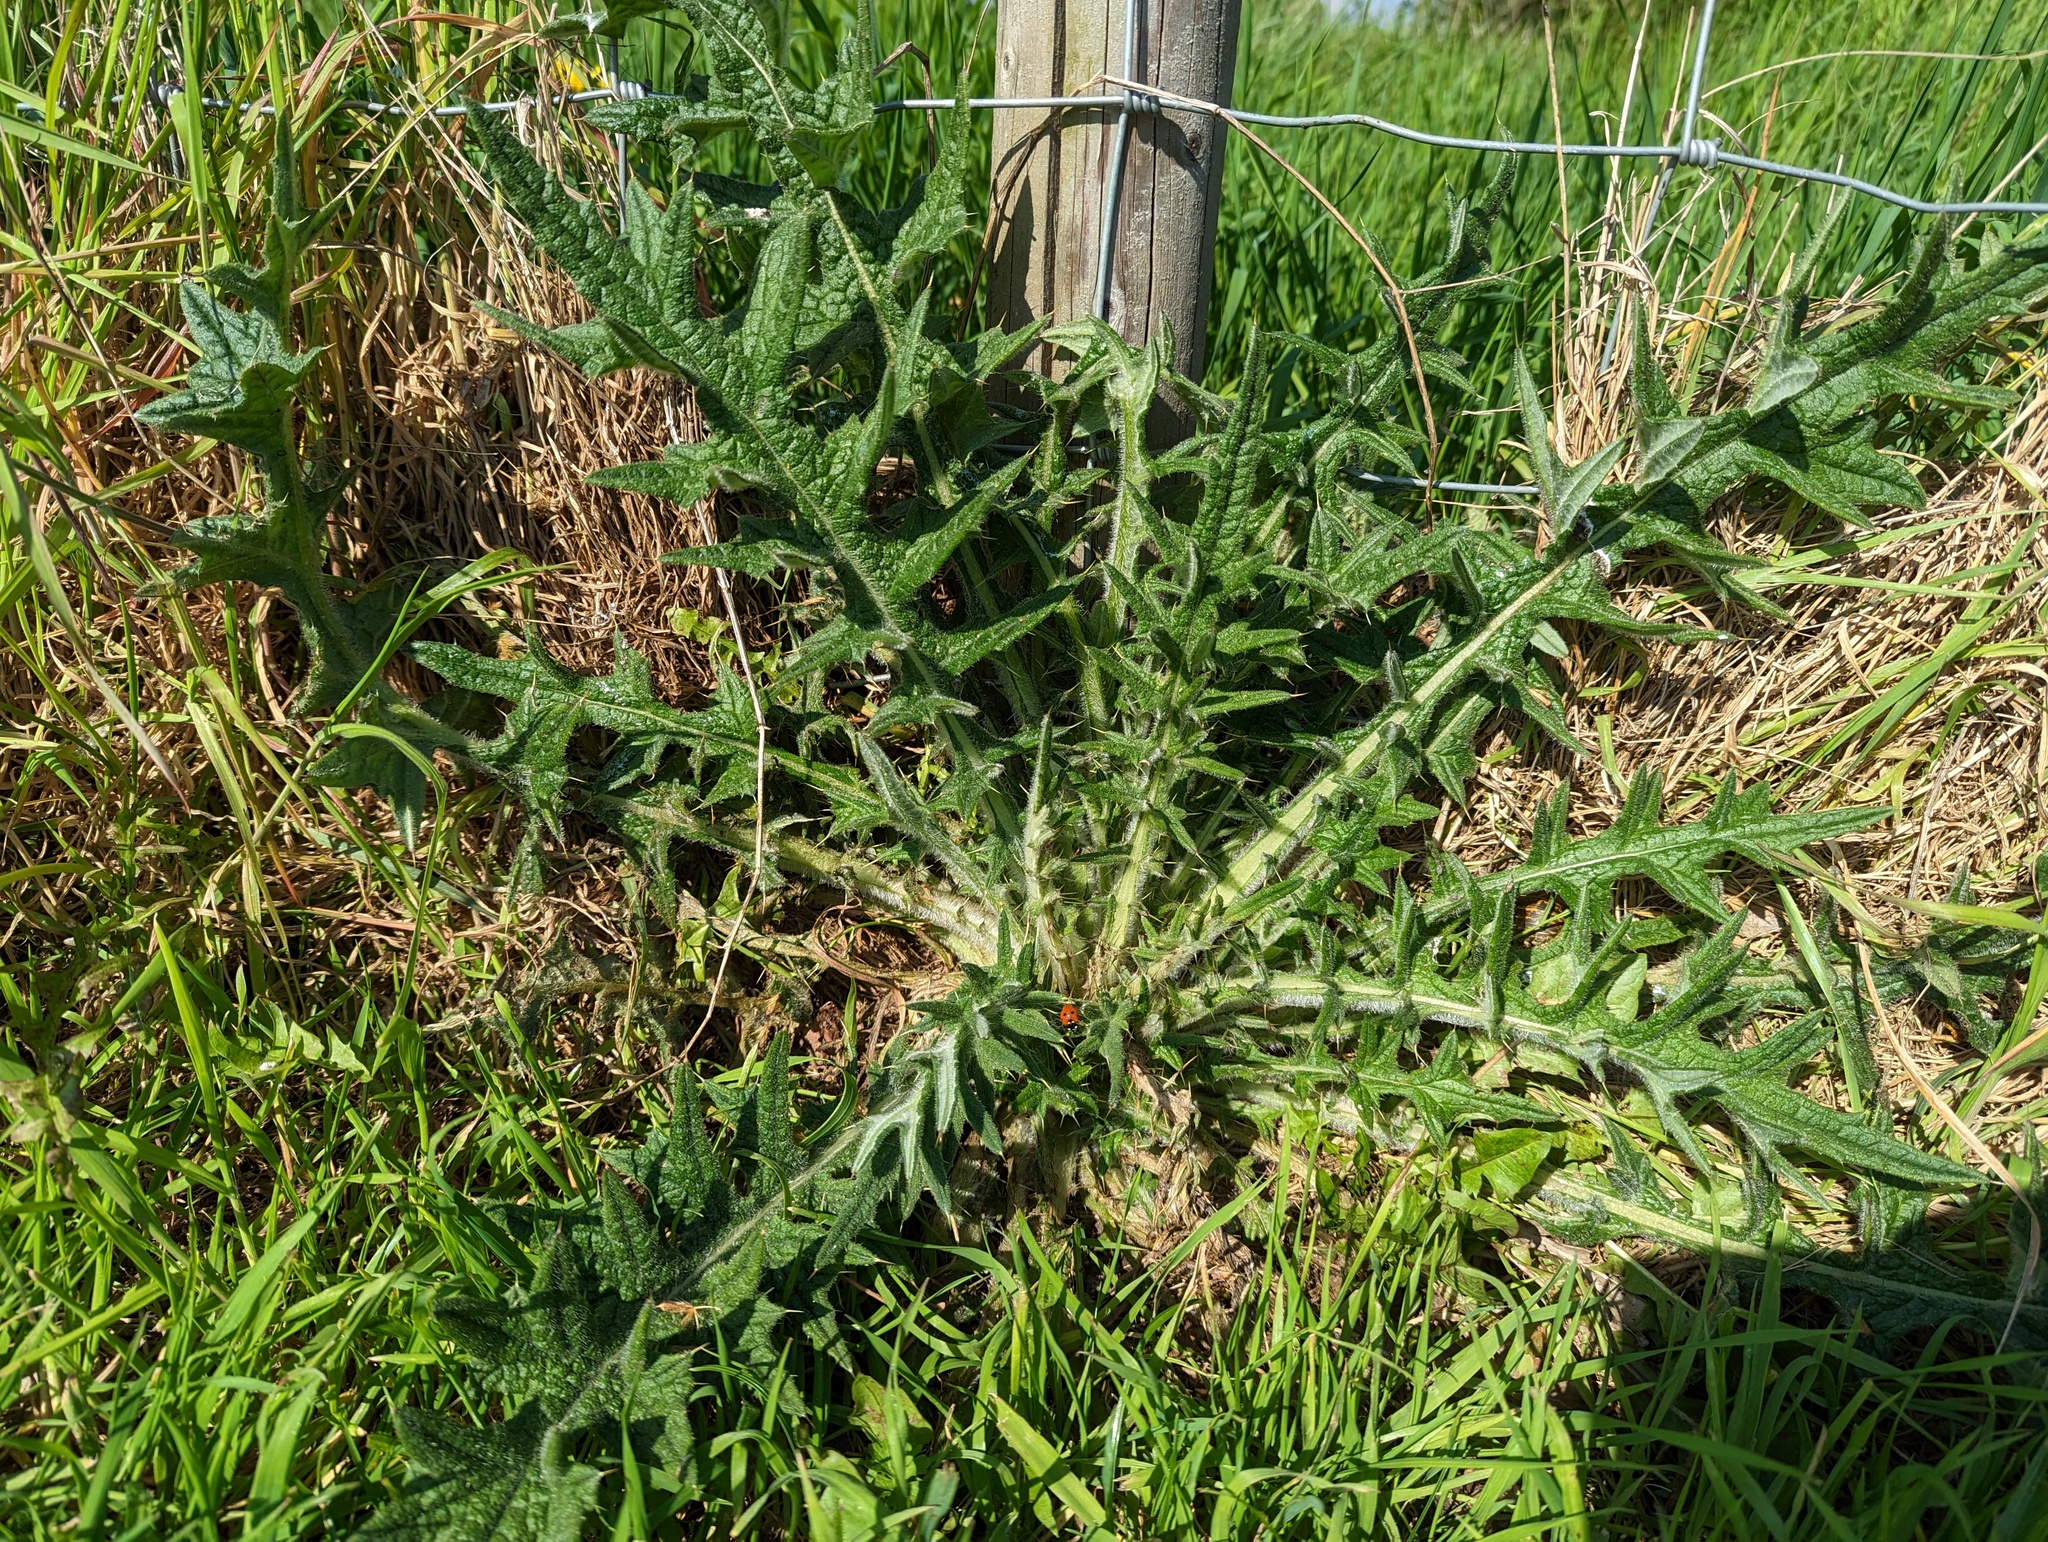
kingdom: Plantae
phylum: Tracheophyta
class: Magnoliopsida
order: Asterales
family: Asteraceae
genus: Cirsium
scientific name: Cirsium vulgare
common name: Bull thistle
